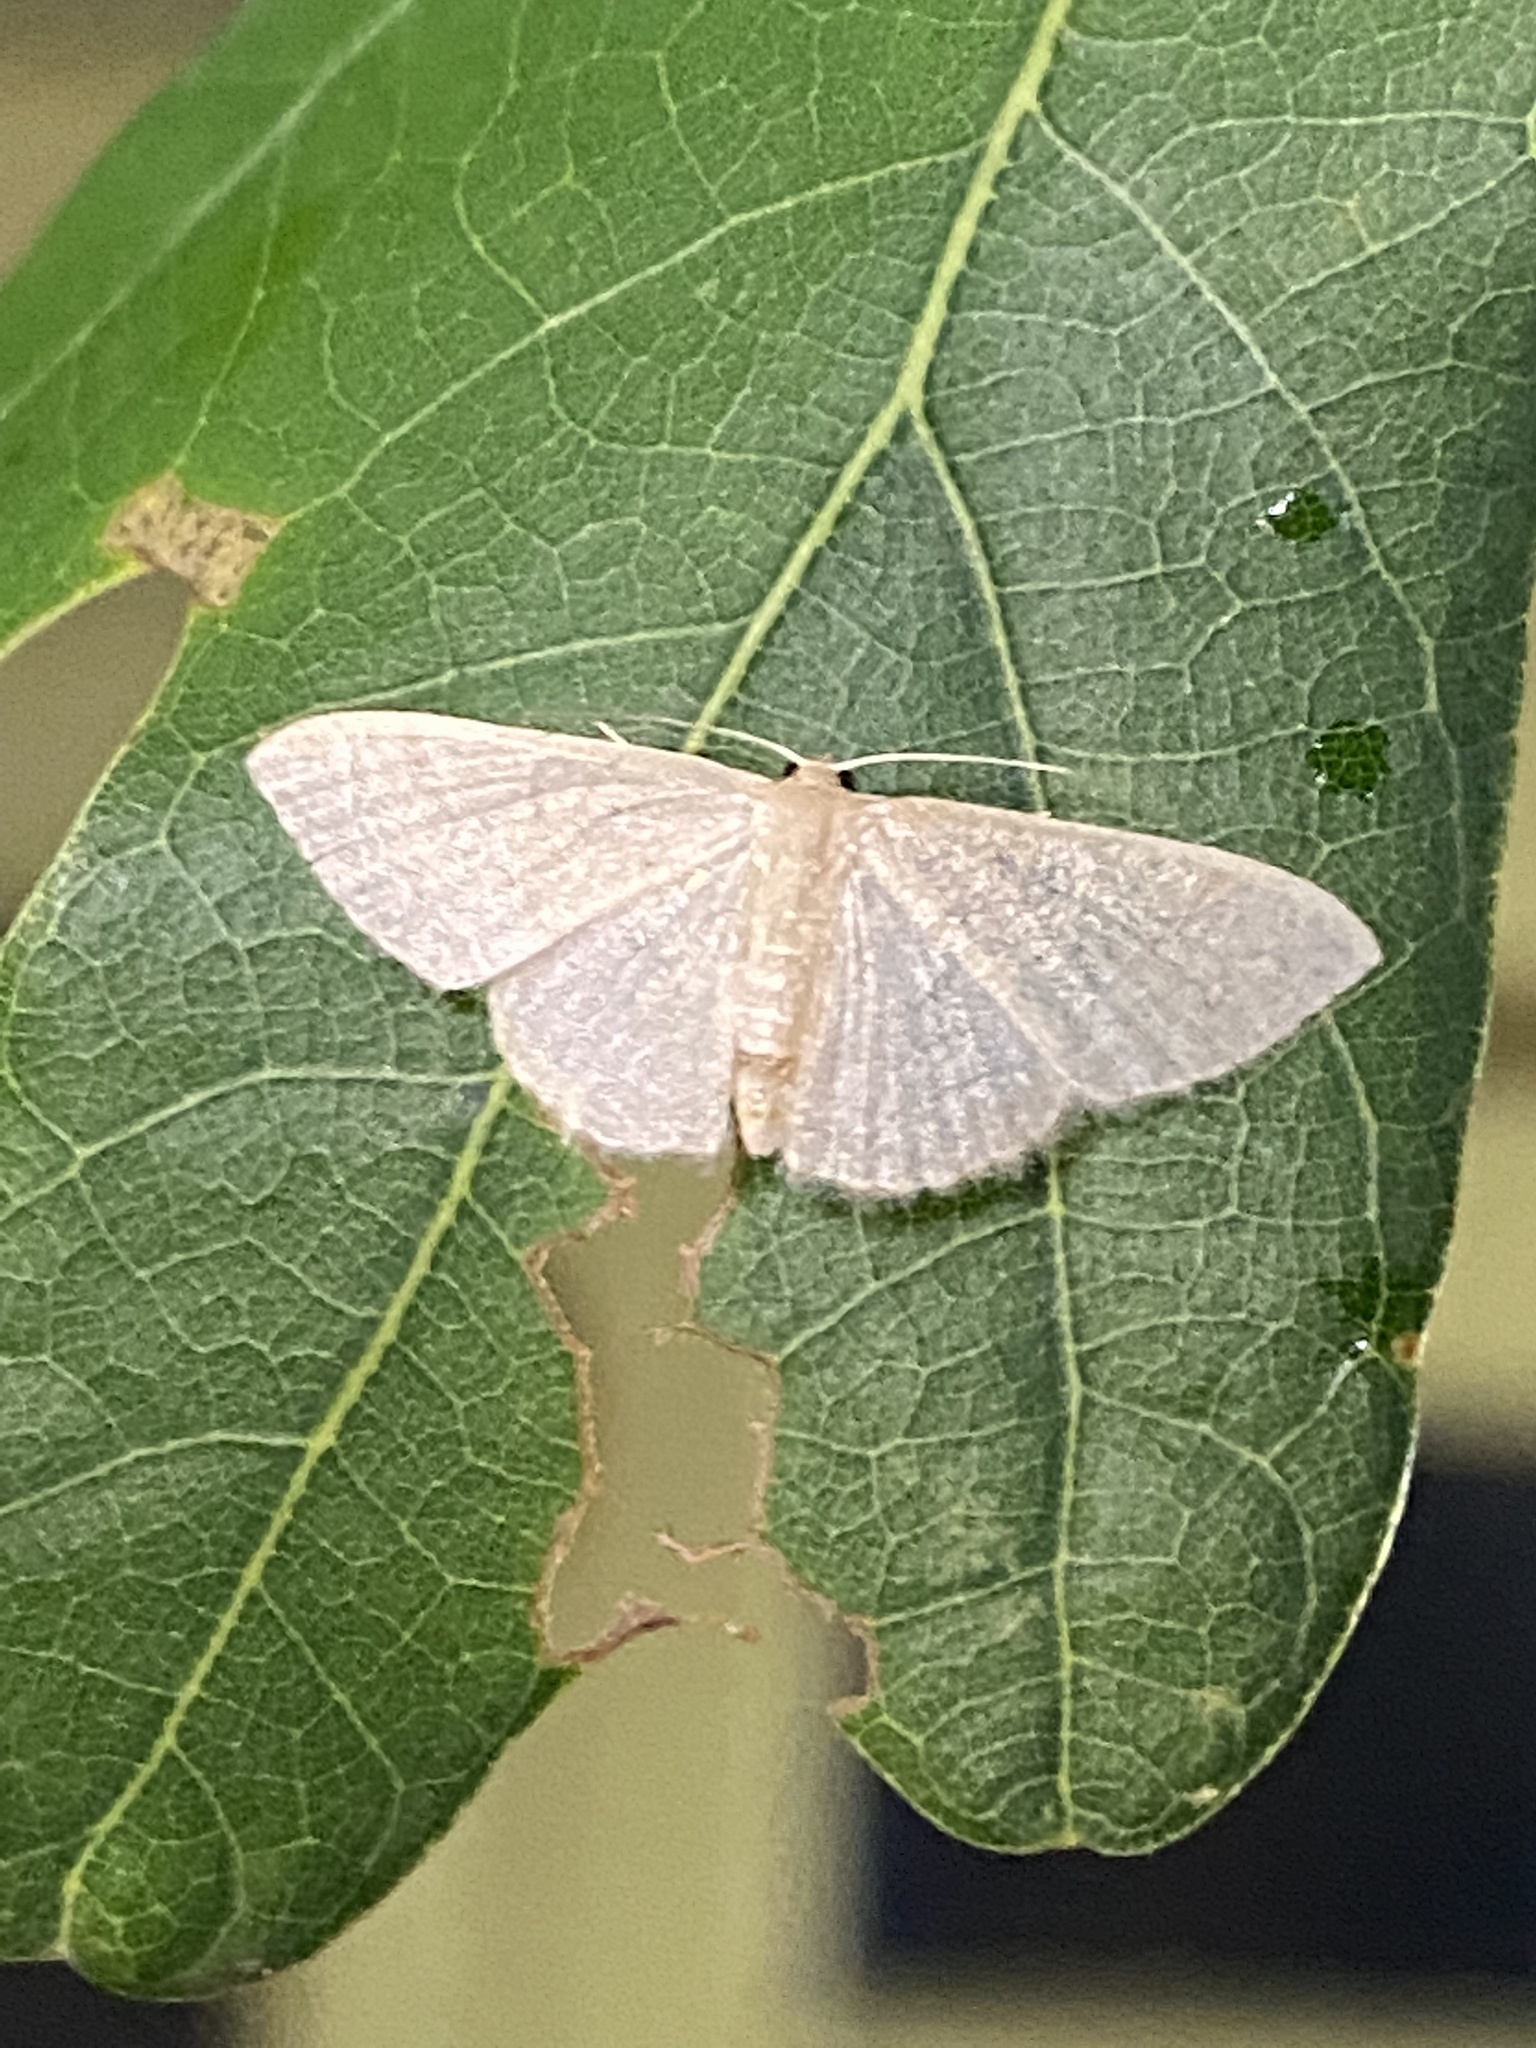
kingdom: Animalia
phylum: Arthropoda
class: Insecta
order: Lepidoptera
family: Geometridae
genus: Pleuroprucha
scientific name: Pleuroprucha insulsaria
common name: Common tan wave
